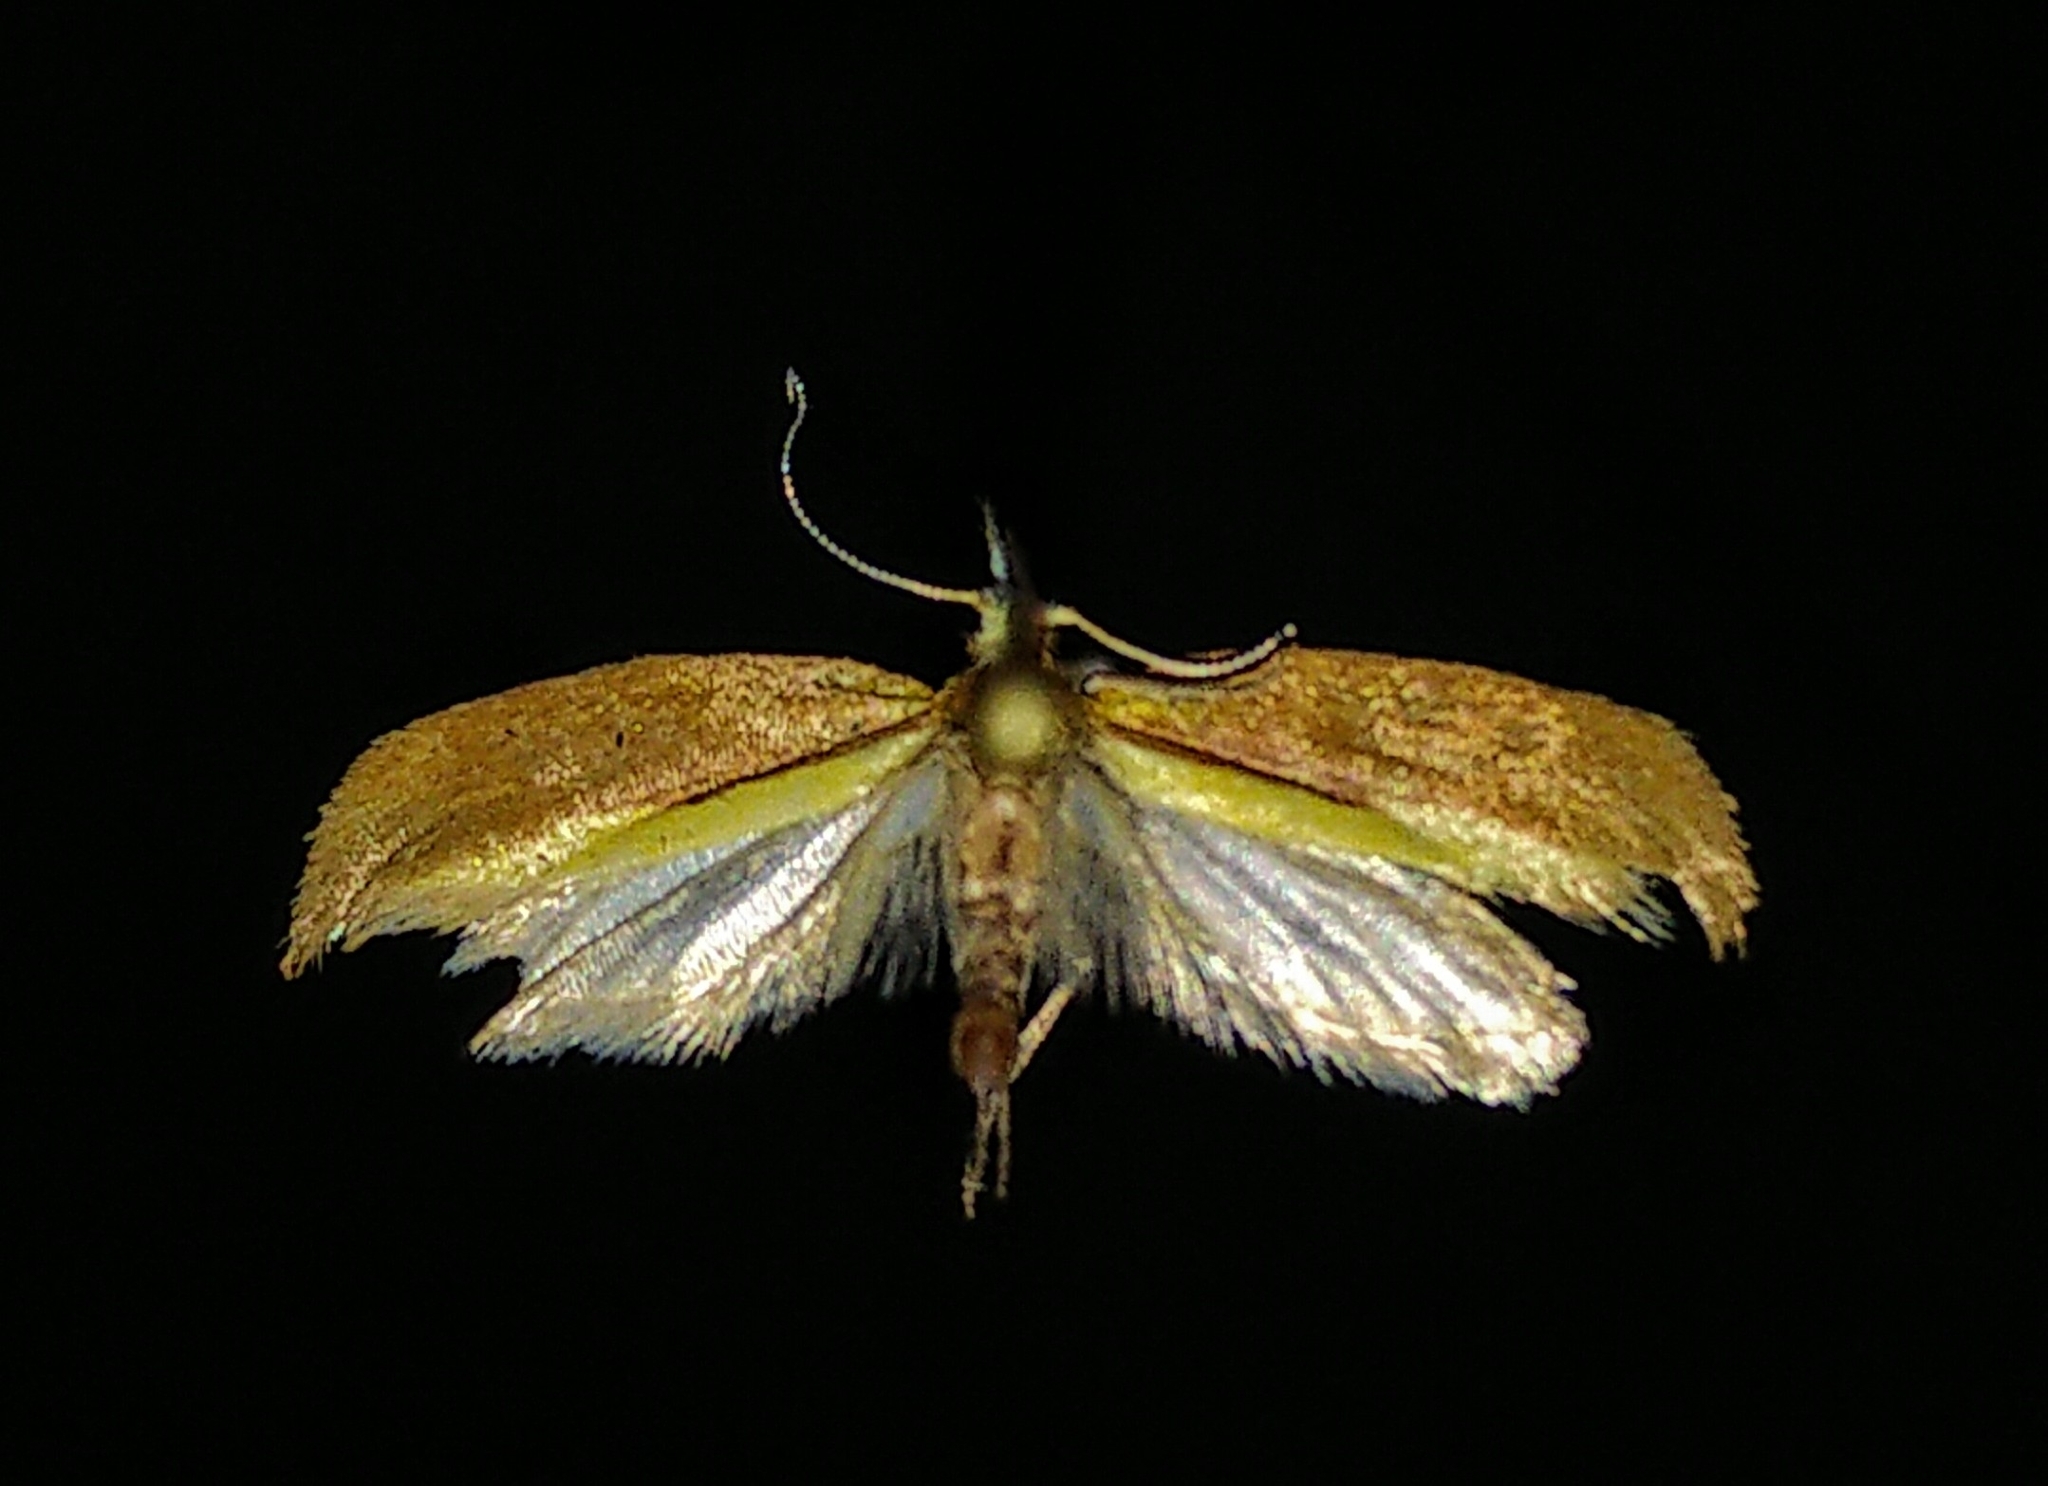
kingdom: Animalia
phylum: Arthropoda
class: Insecta
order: Lepidoptera
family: Ypsolophidae
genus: Ypsolopha
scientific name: Ypsolopha
